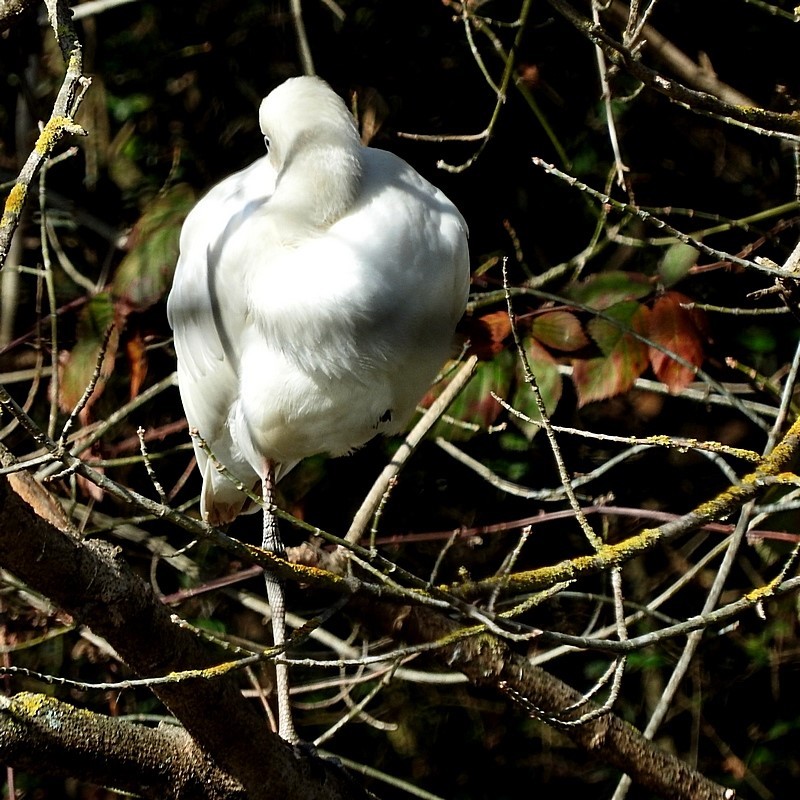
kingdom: Animalia
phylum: Chordata
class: Aves
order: Pelecaniformes
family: Threskiornithidae
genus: Platalea
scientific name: Platalea flavipes
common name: Yellow-billed spoonbill
